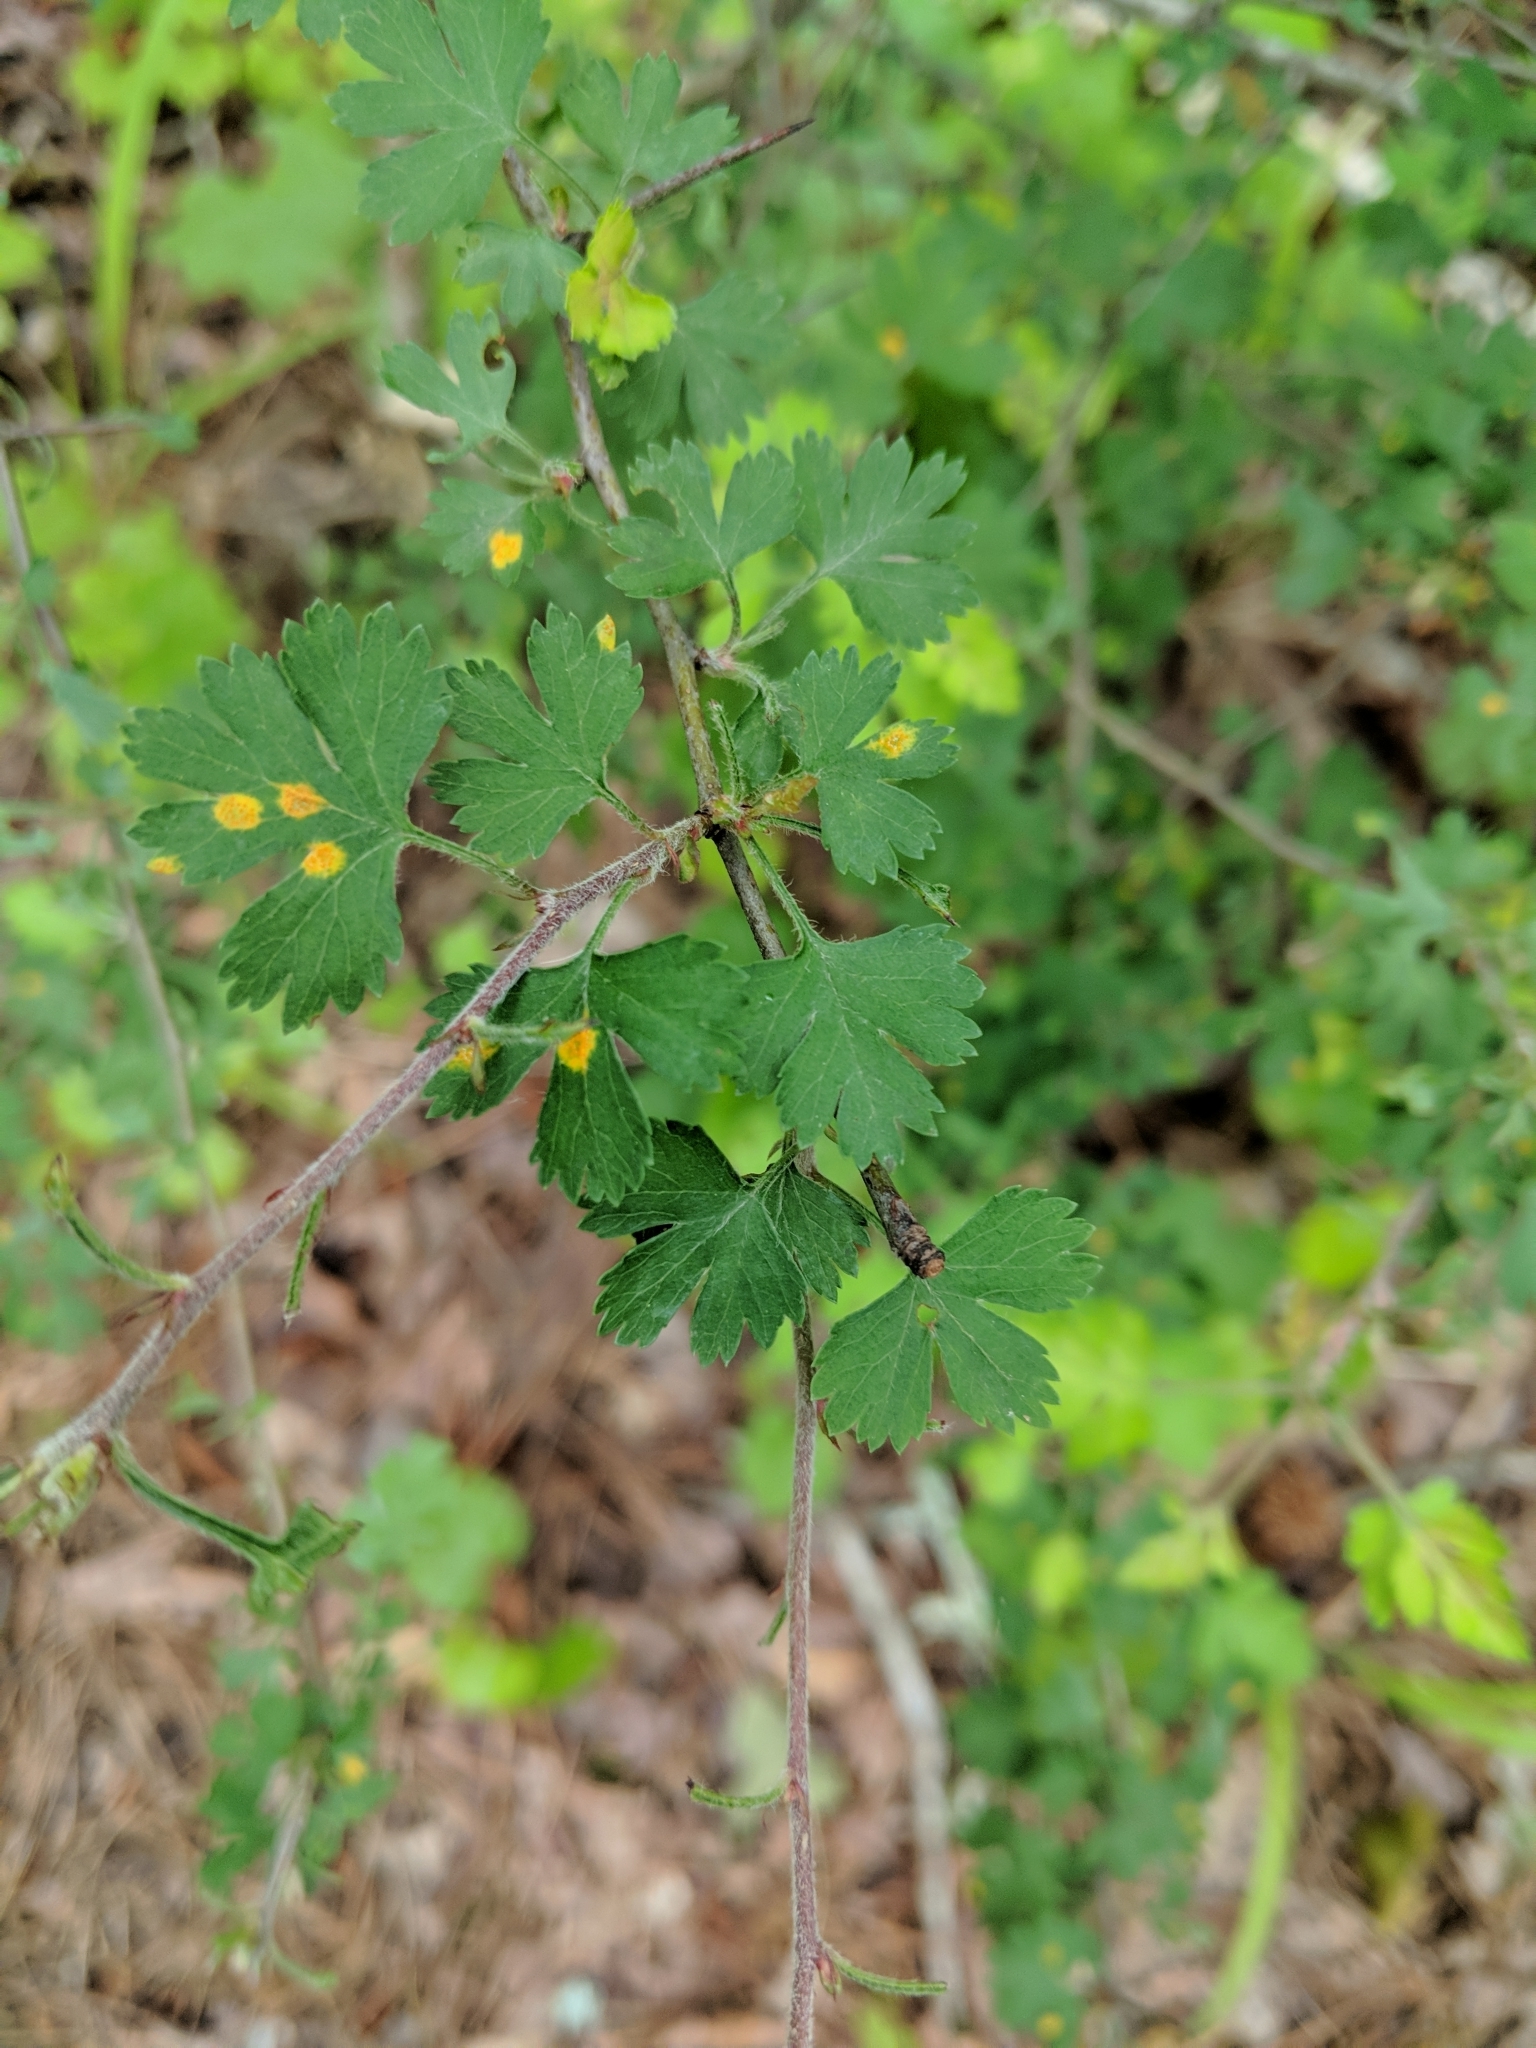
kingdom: Plantae
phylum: Tracheophyta
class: Magnoliopsida
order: Rosales
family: Rosaceae
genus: Crataegus
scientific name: Crataegus marshallii
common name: Parsley-hawthorn
